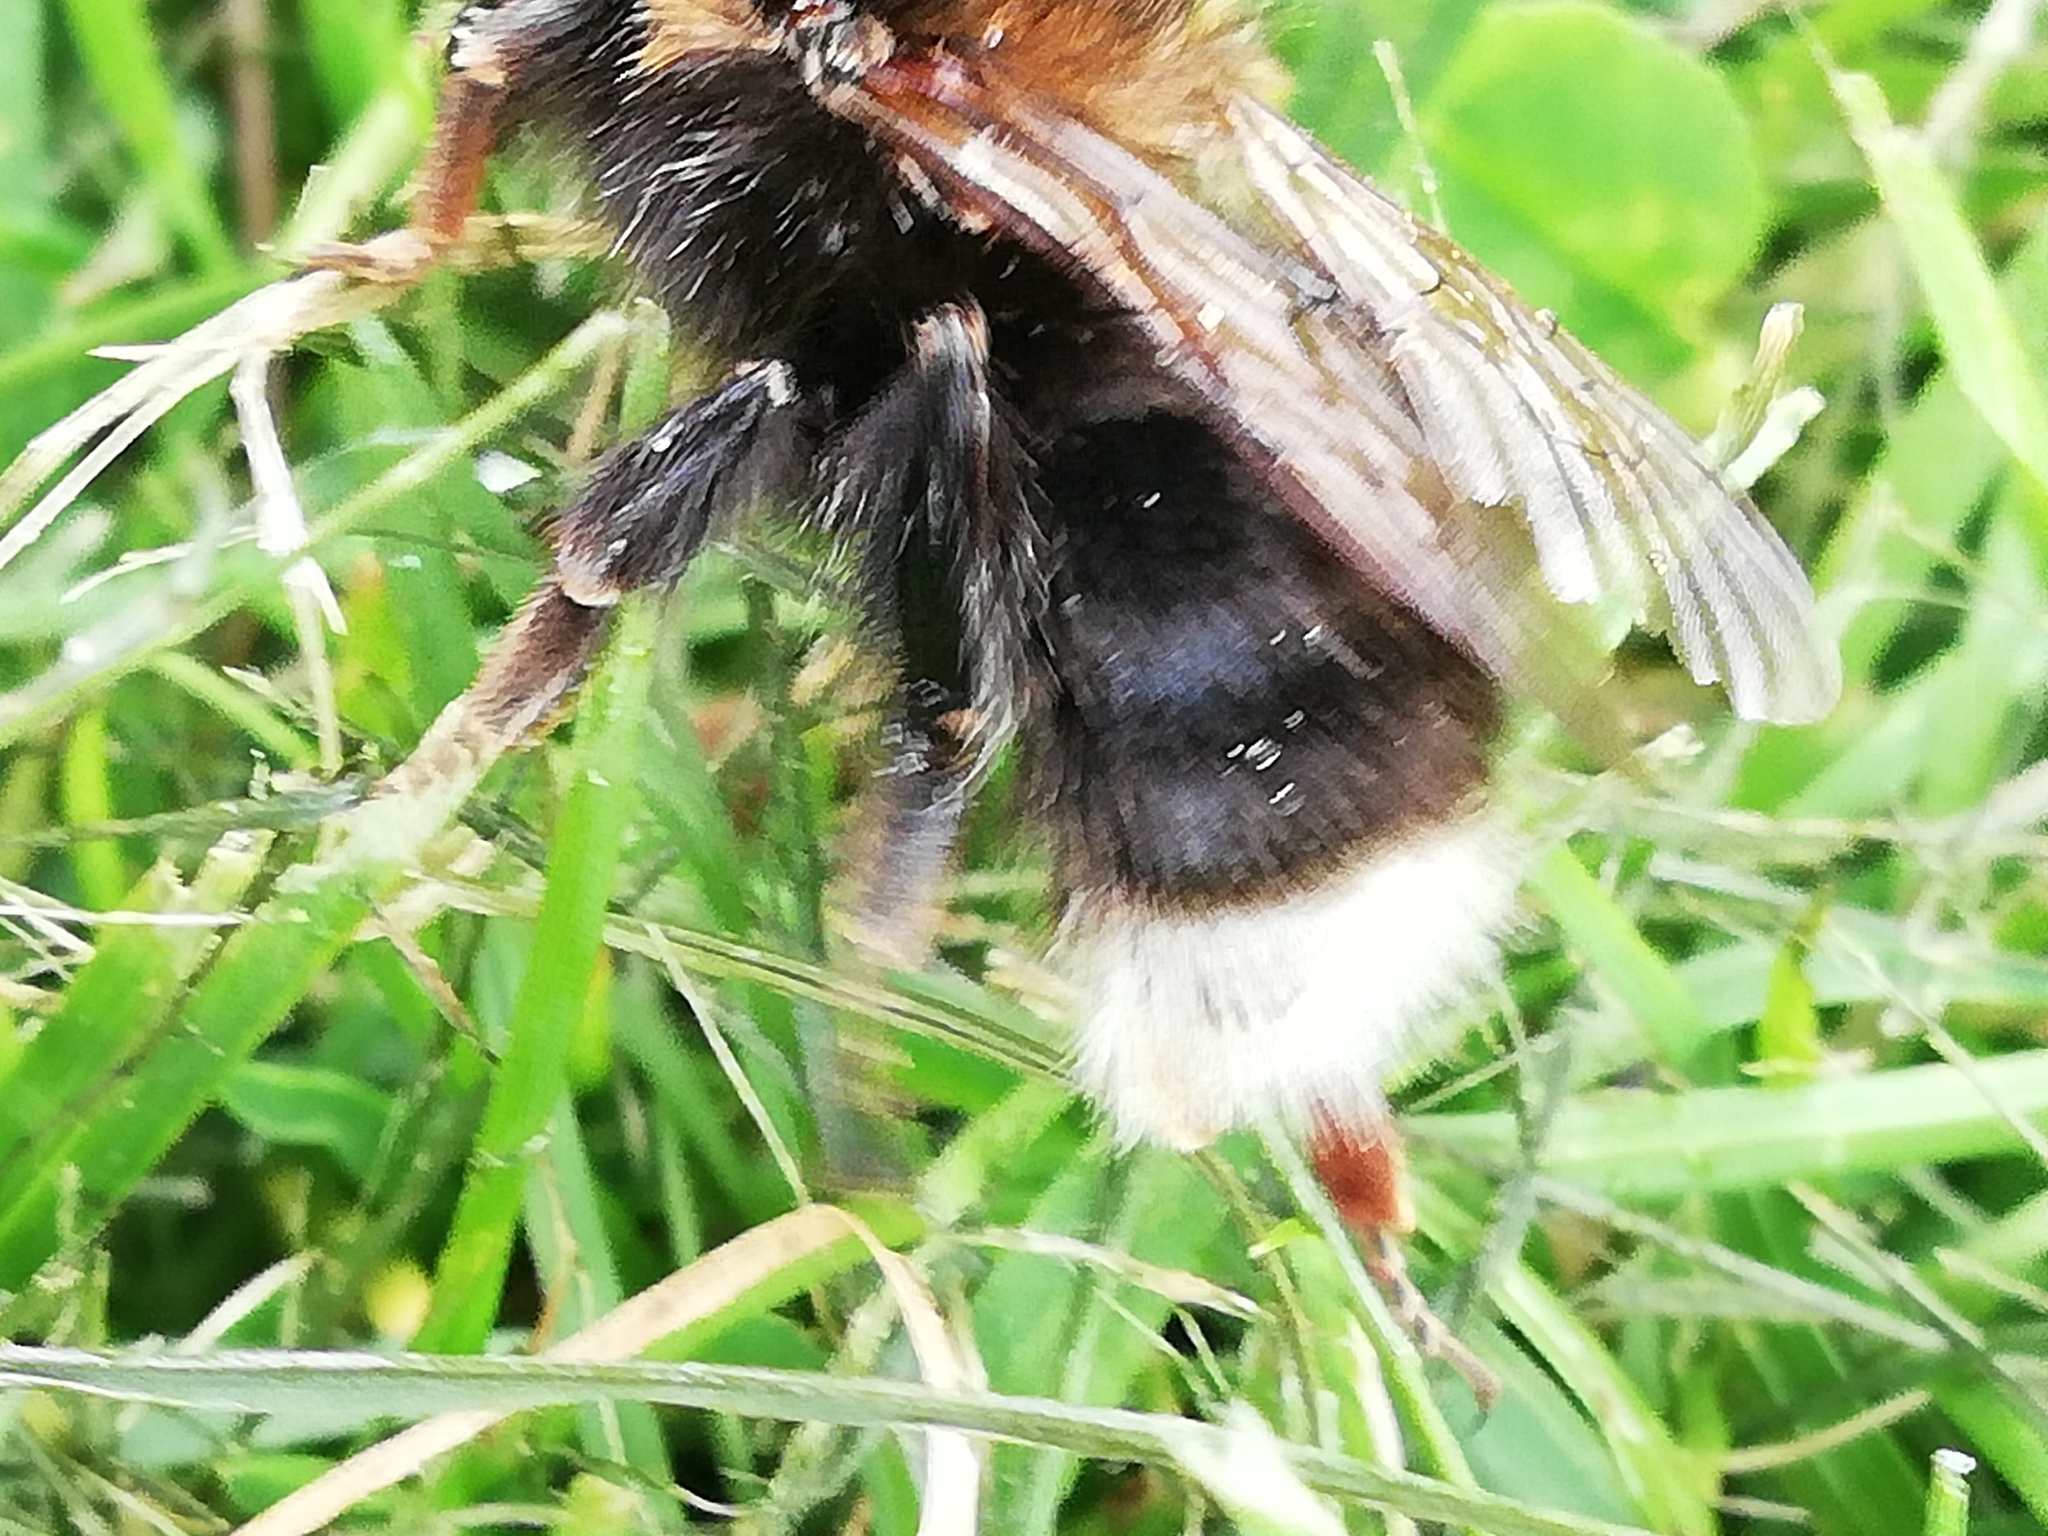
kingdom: Animalia
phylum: Arthropoda
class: Insecta
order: Hymenoptera
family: Apidae
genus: Bombus
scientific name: Bombus hypnorum
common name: New garden bumblebee
